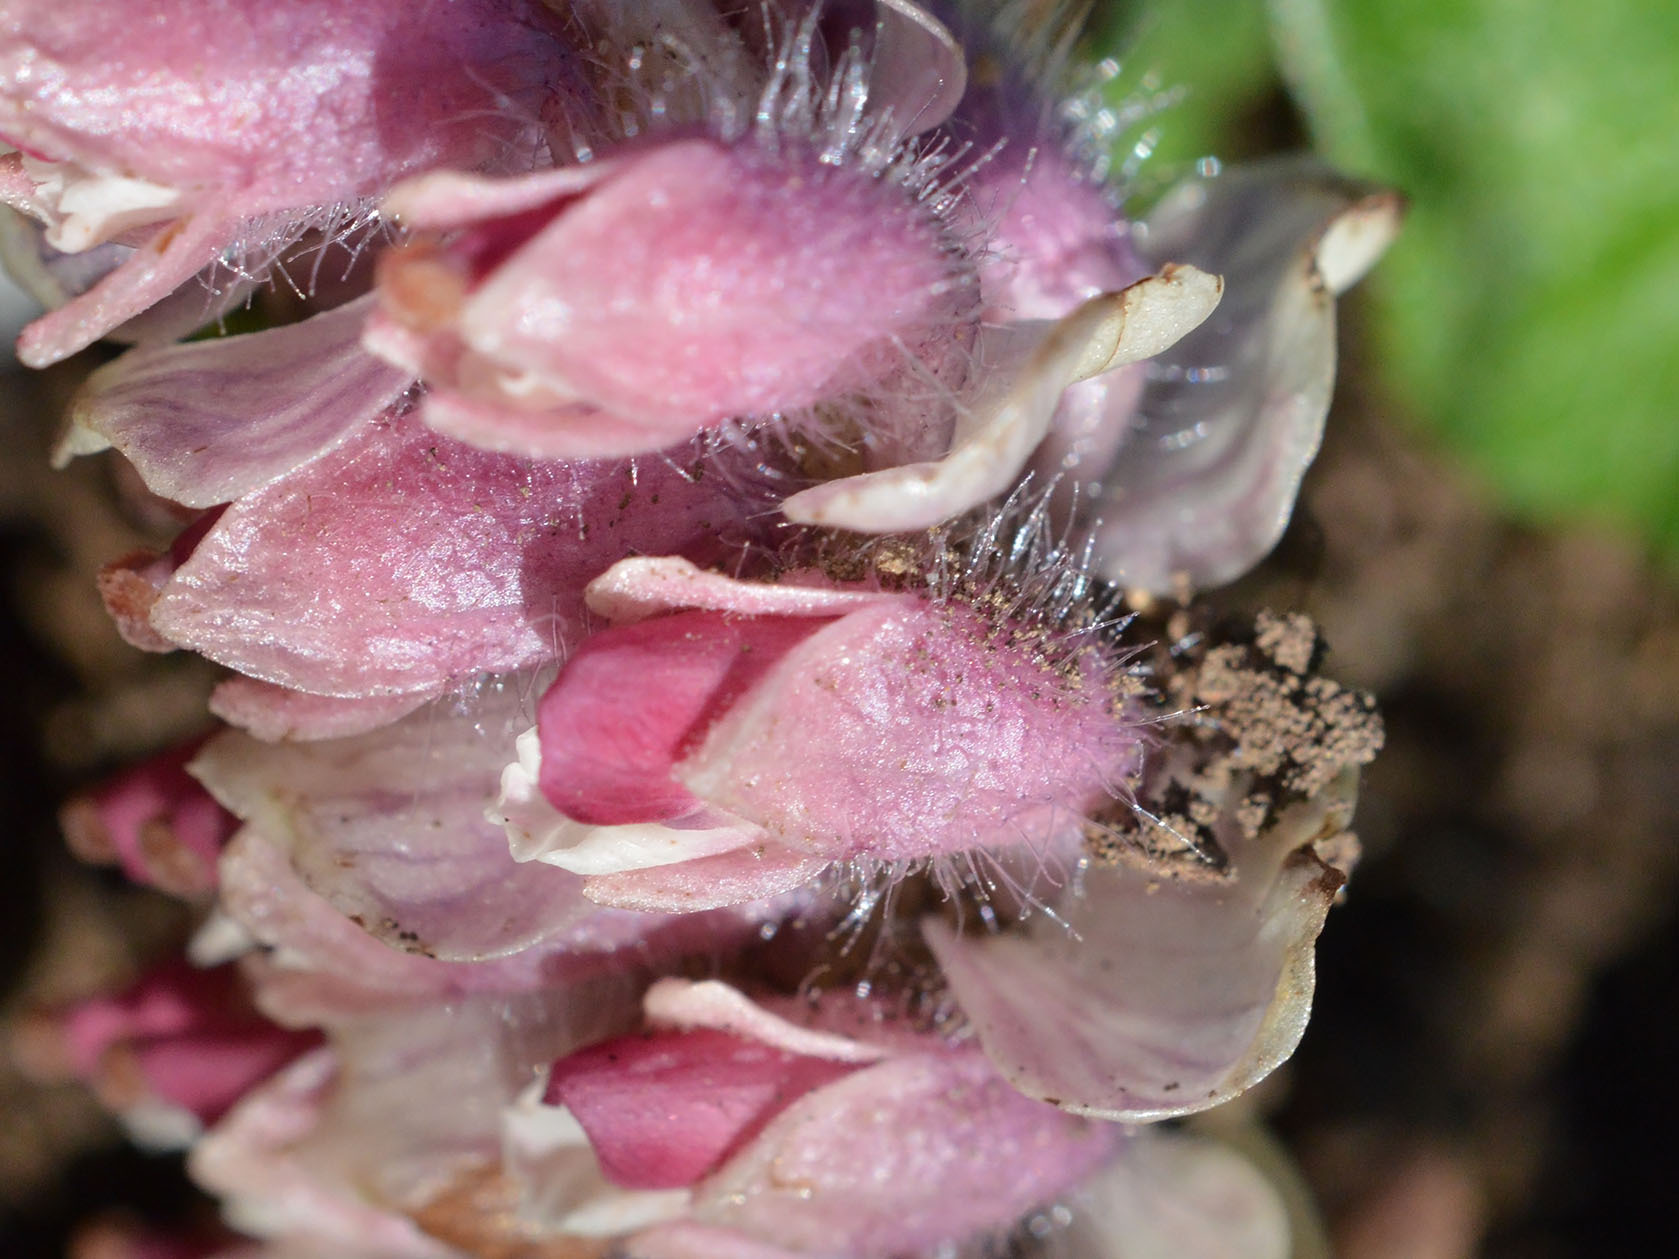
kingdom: Plantae
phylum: Tracheophyta
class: Magnoliopsida
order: Lamiales
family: Orobanchaceae
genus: Lathraea
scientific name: Lathraea squamaria
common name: Toothwort
